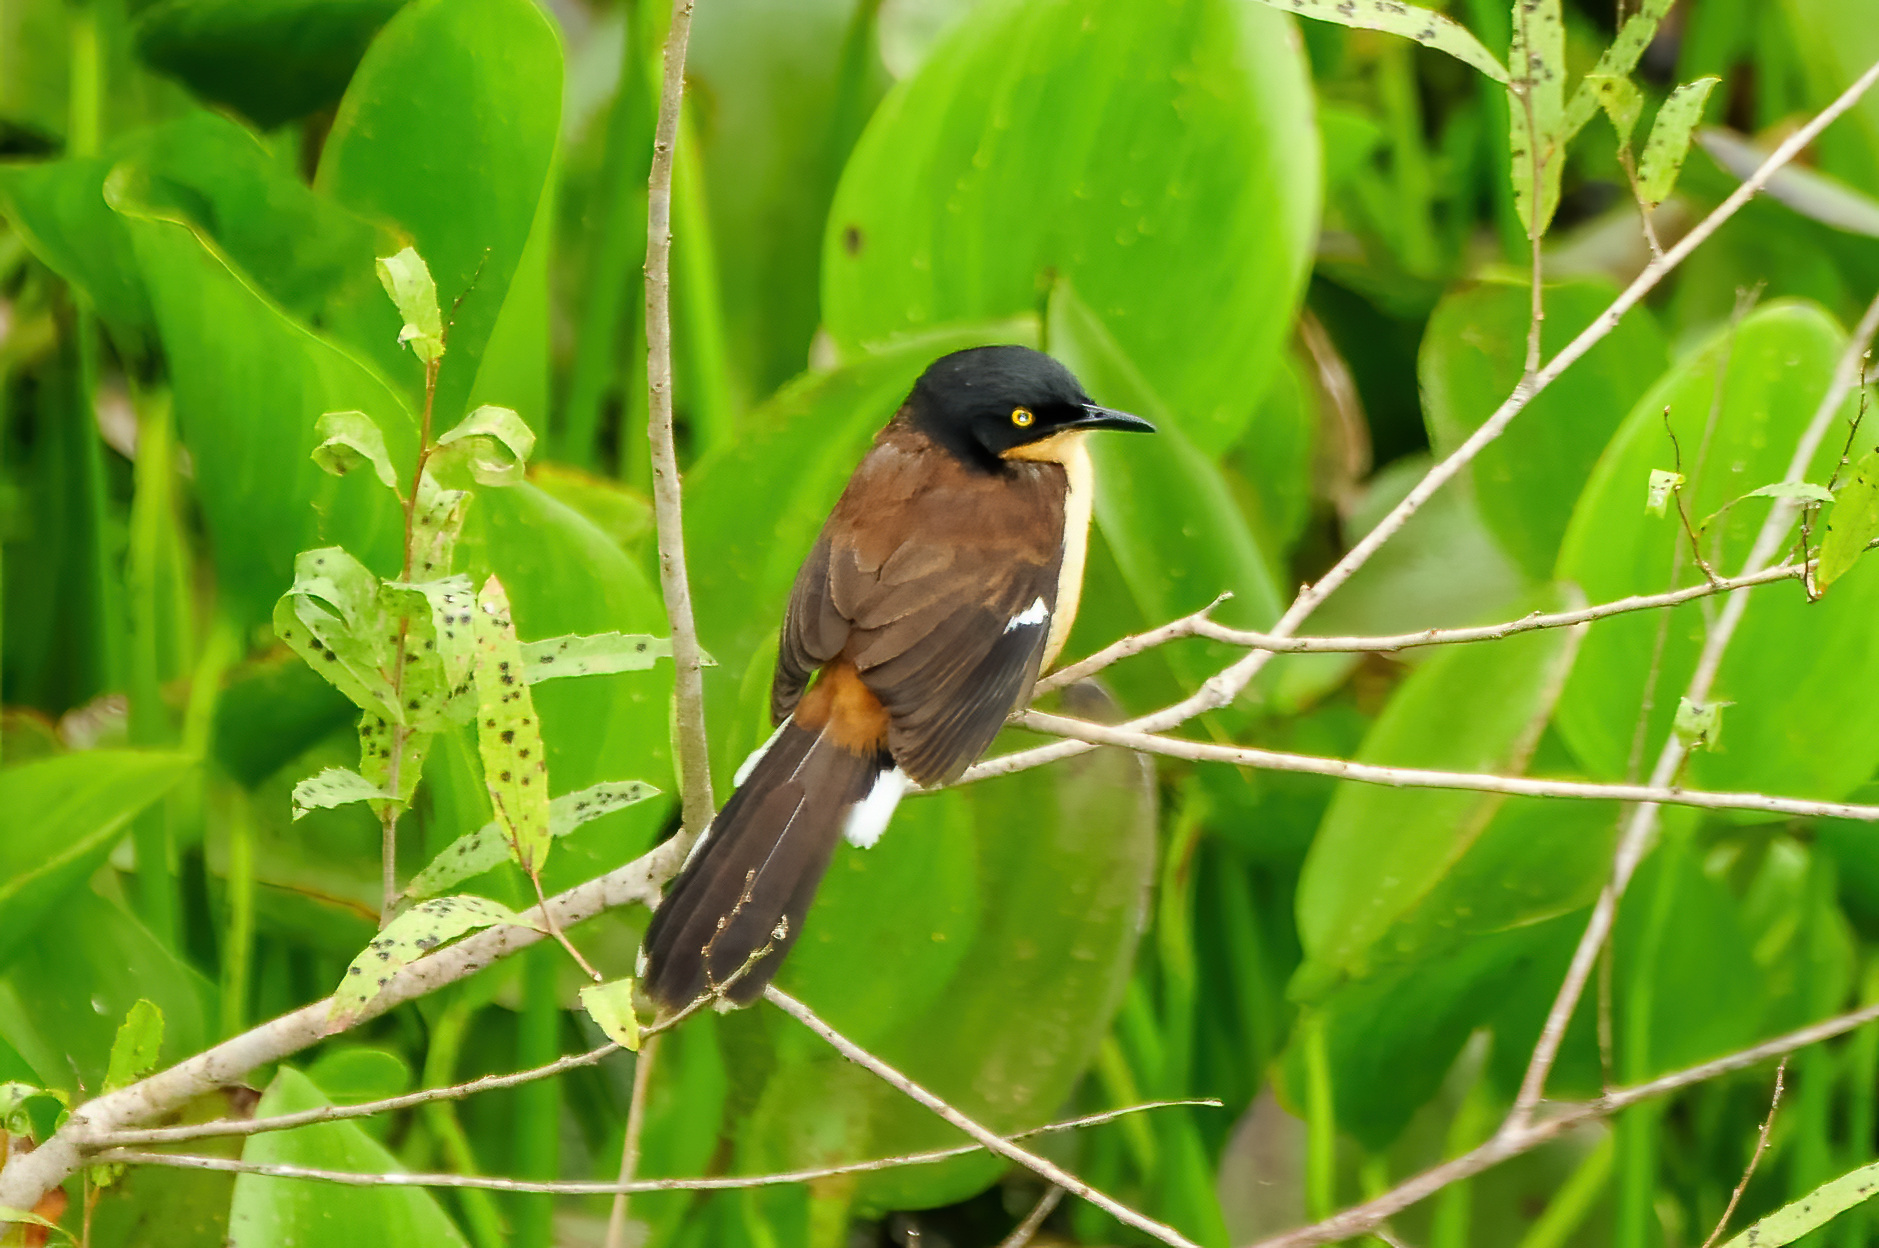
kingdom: Animalia
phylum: Chordata
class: Aves
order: Passeriformes
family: Donacobiidae
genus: Donacobius
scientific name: Donacobius atricapilla
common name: Black-capped donacobius
